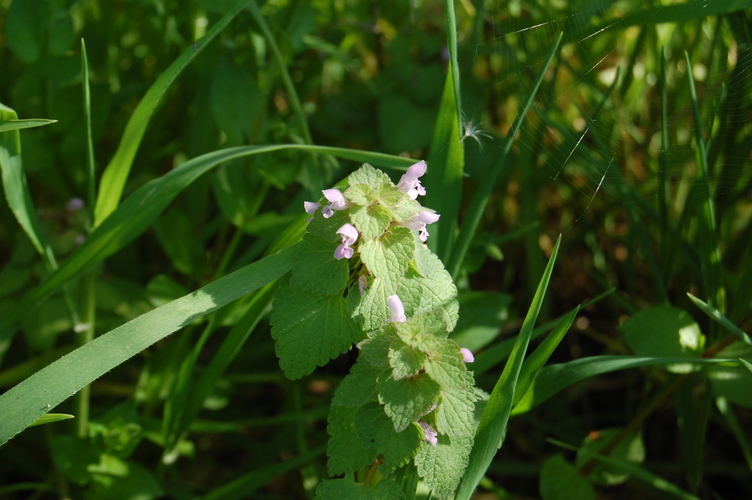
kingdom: Plantae
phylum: Tracheophyta
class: Magnoliopsida
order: Lamiales
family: Lamiaceae
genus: Lamium
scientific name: Lamium purpureum
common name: Red dead-nettle
